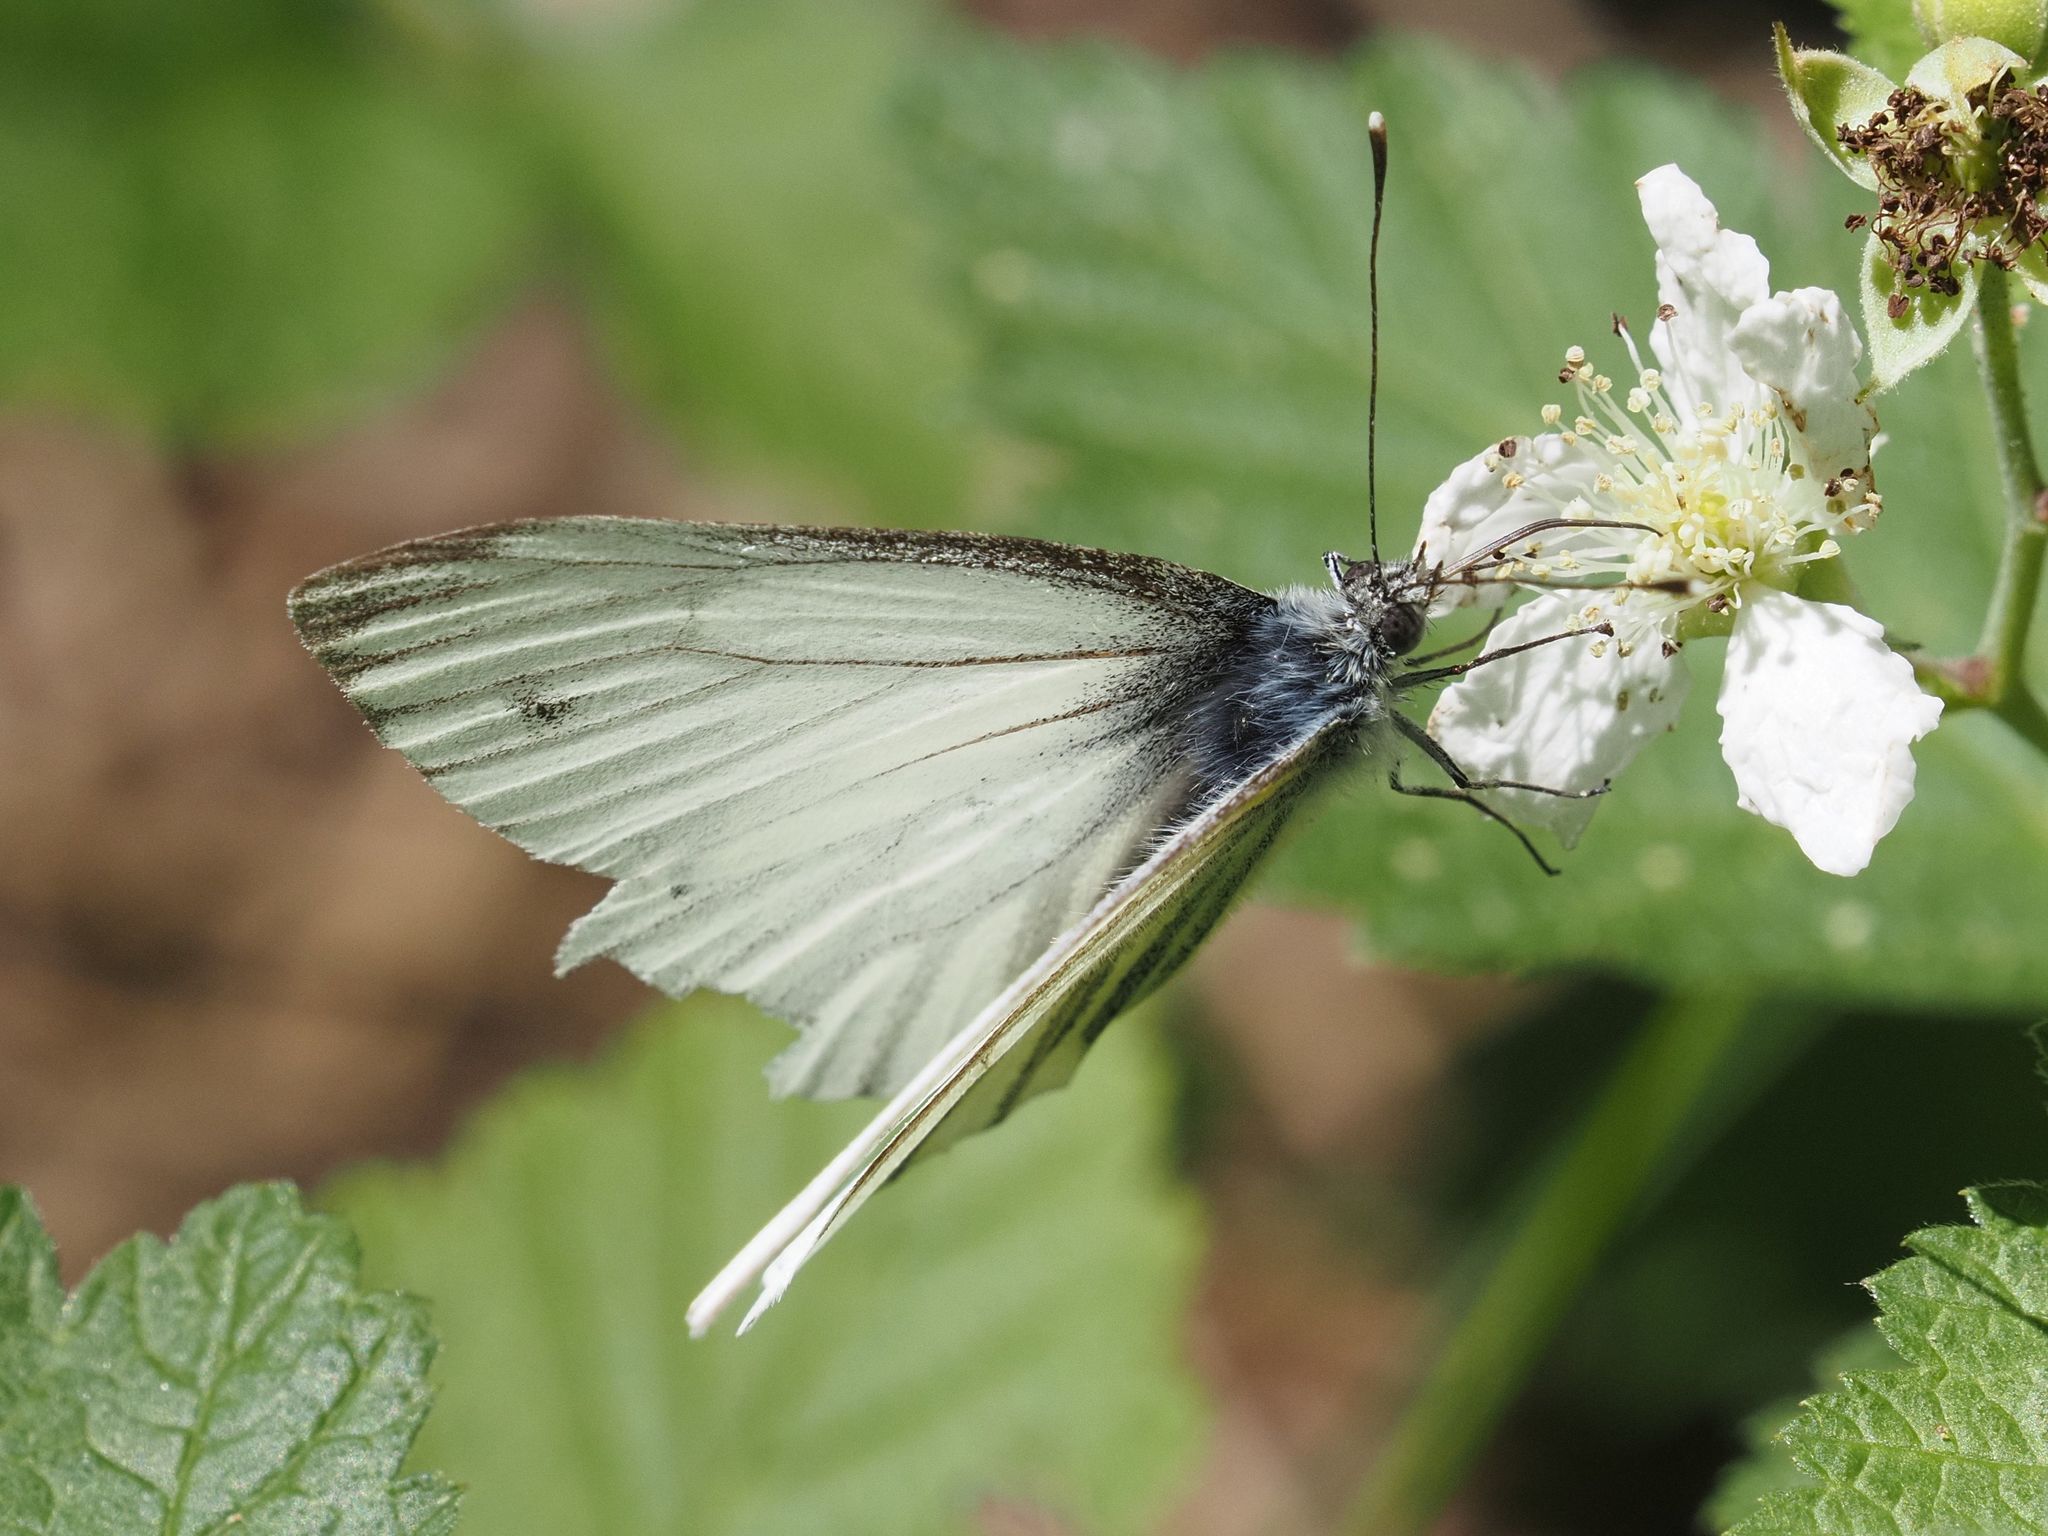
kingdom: Animalia
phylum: Arthropoda
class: Insecta
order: Lepidoptera
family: Pieridae
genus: Pieris
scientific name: Pieris napi
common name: Green-veined white
